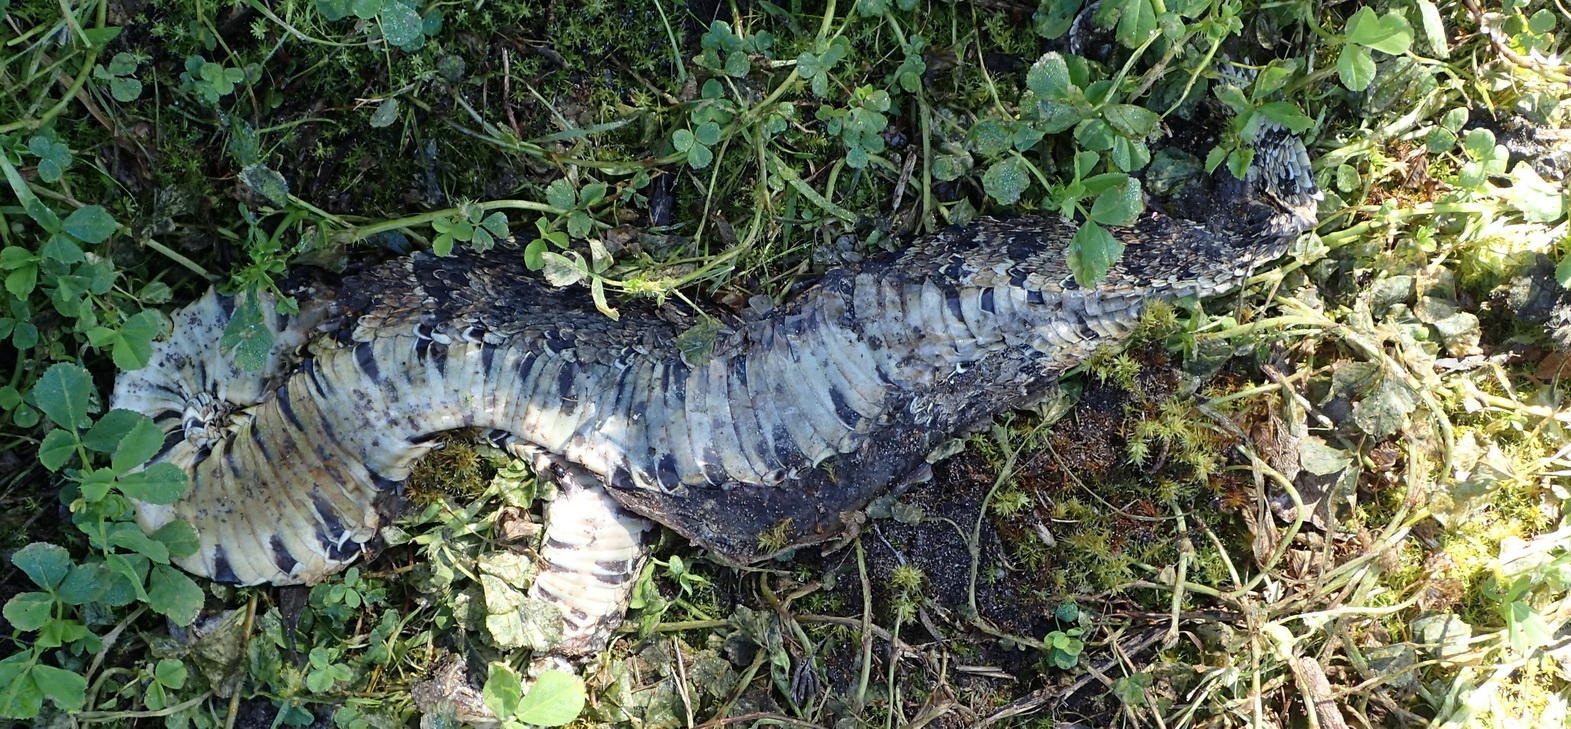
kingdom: Animalia
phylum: Chordata
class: Squamata
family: Viperidae
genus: Bitis
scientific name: Bitis arietans
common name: Puff adder
